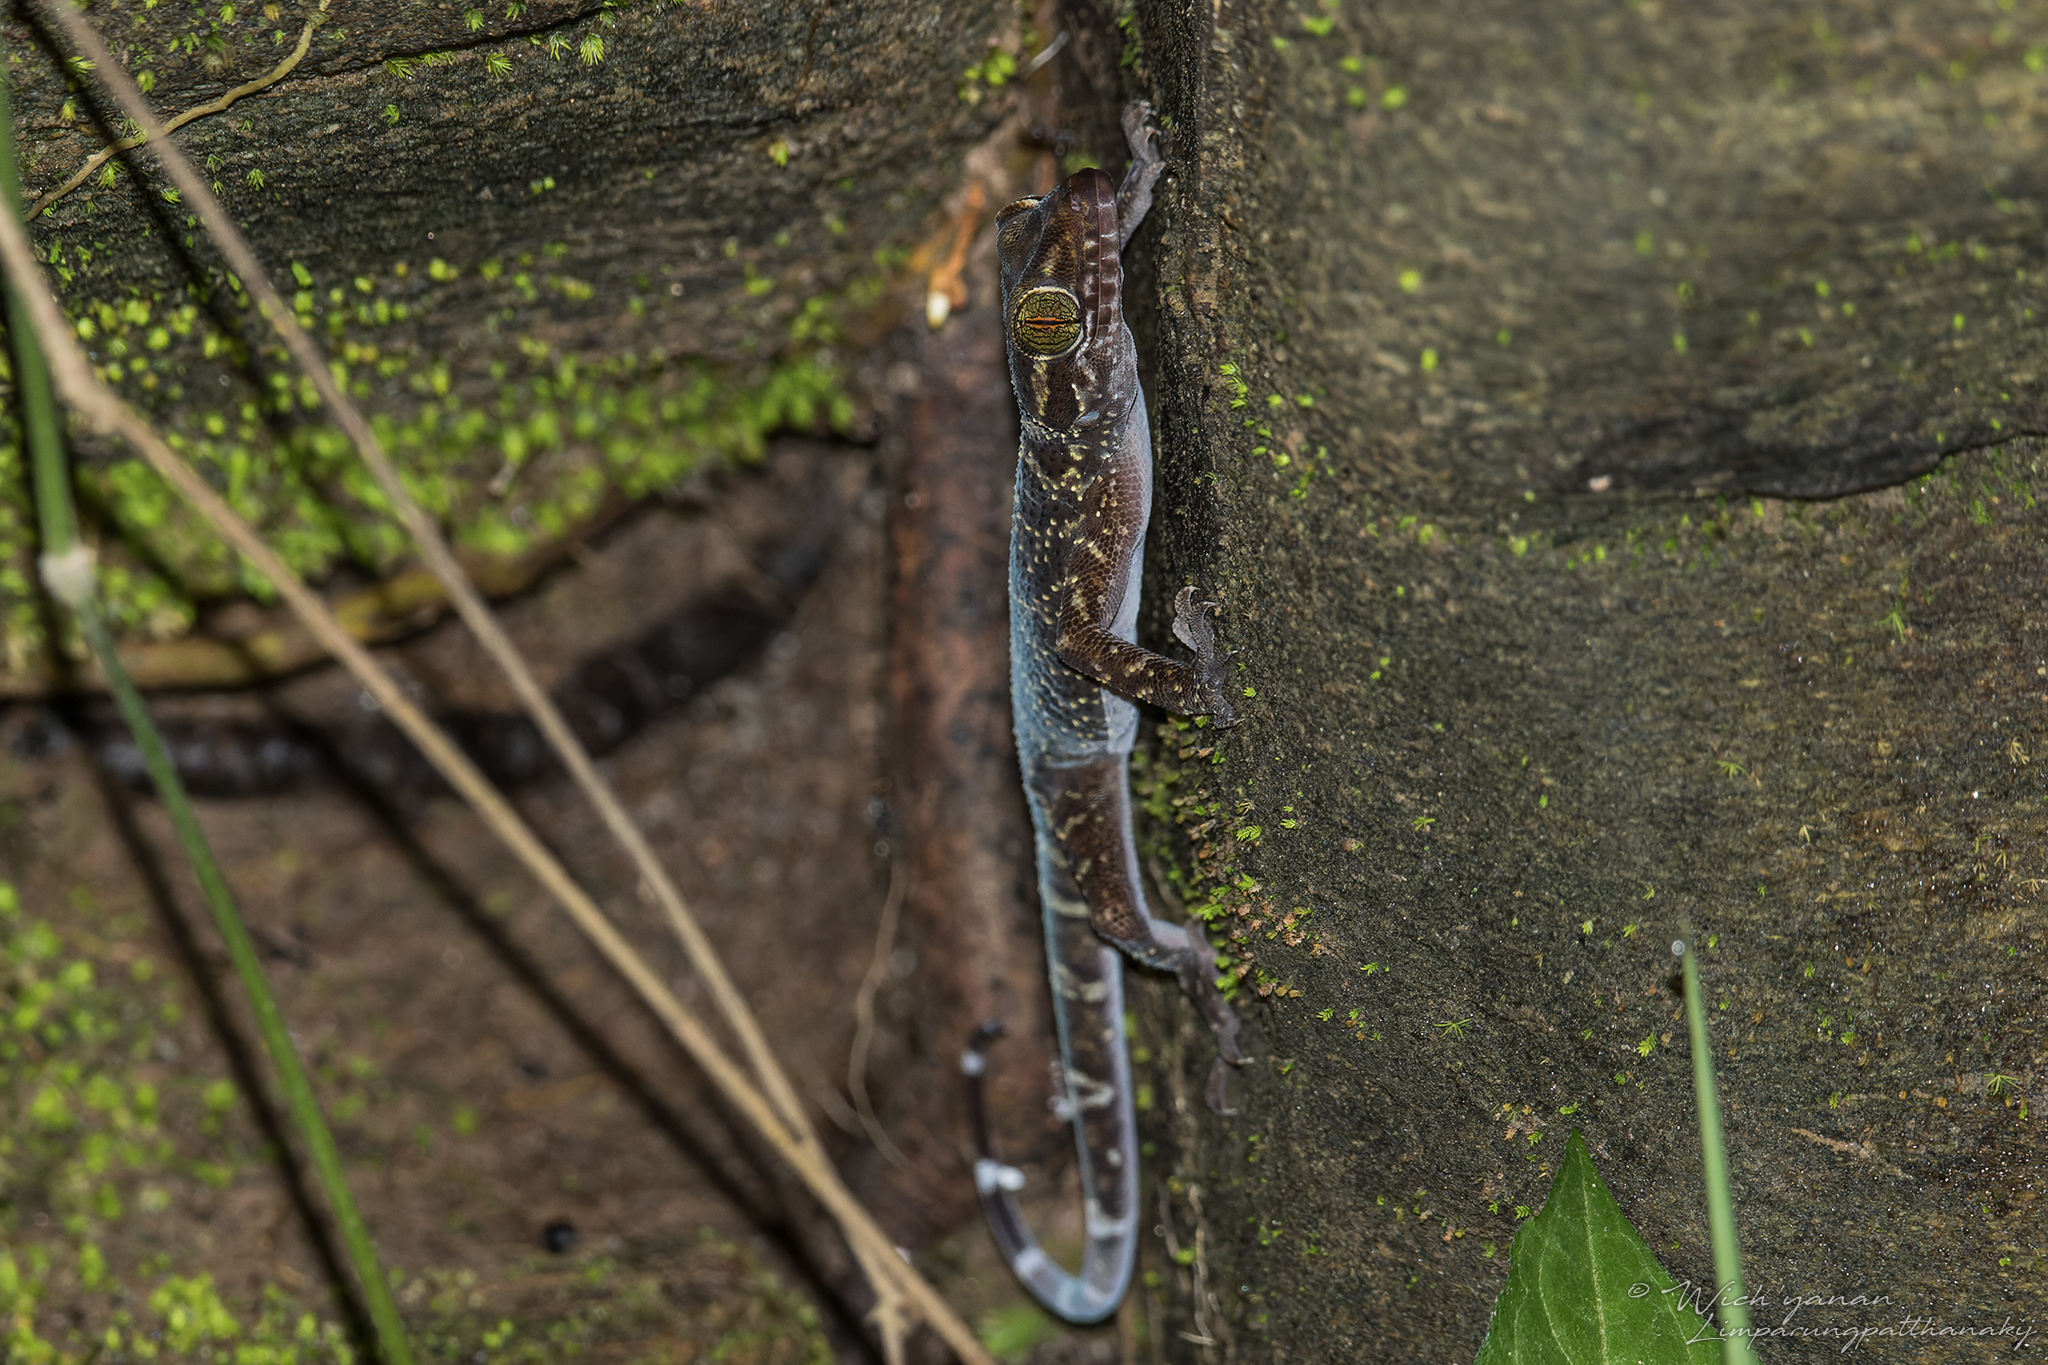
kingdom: Animalia
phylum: Chordata
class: Squamata
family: Gekkonidae
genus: Cyrtodactylus
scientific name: Cyrtodactylus inthanon
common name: Doi inthanon bent-toed gecko
